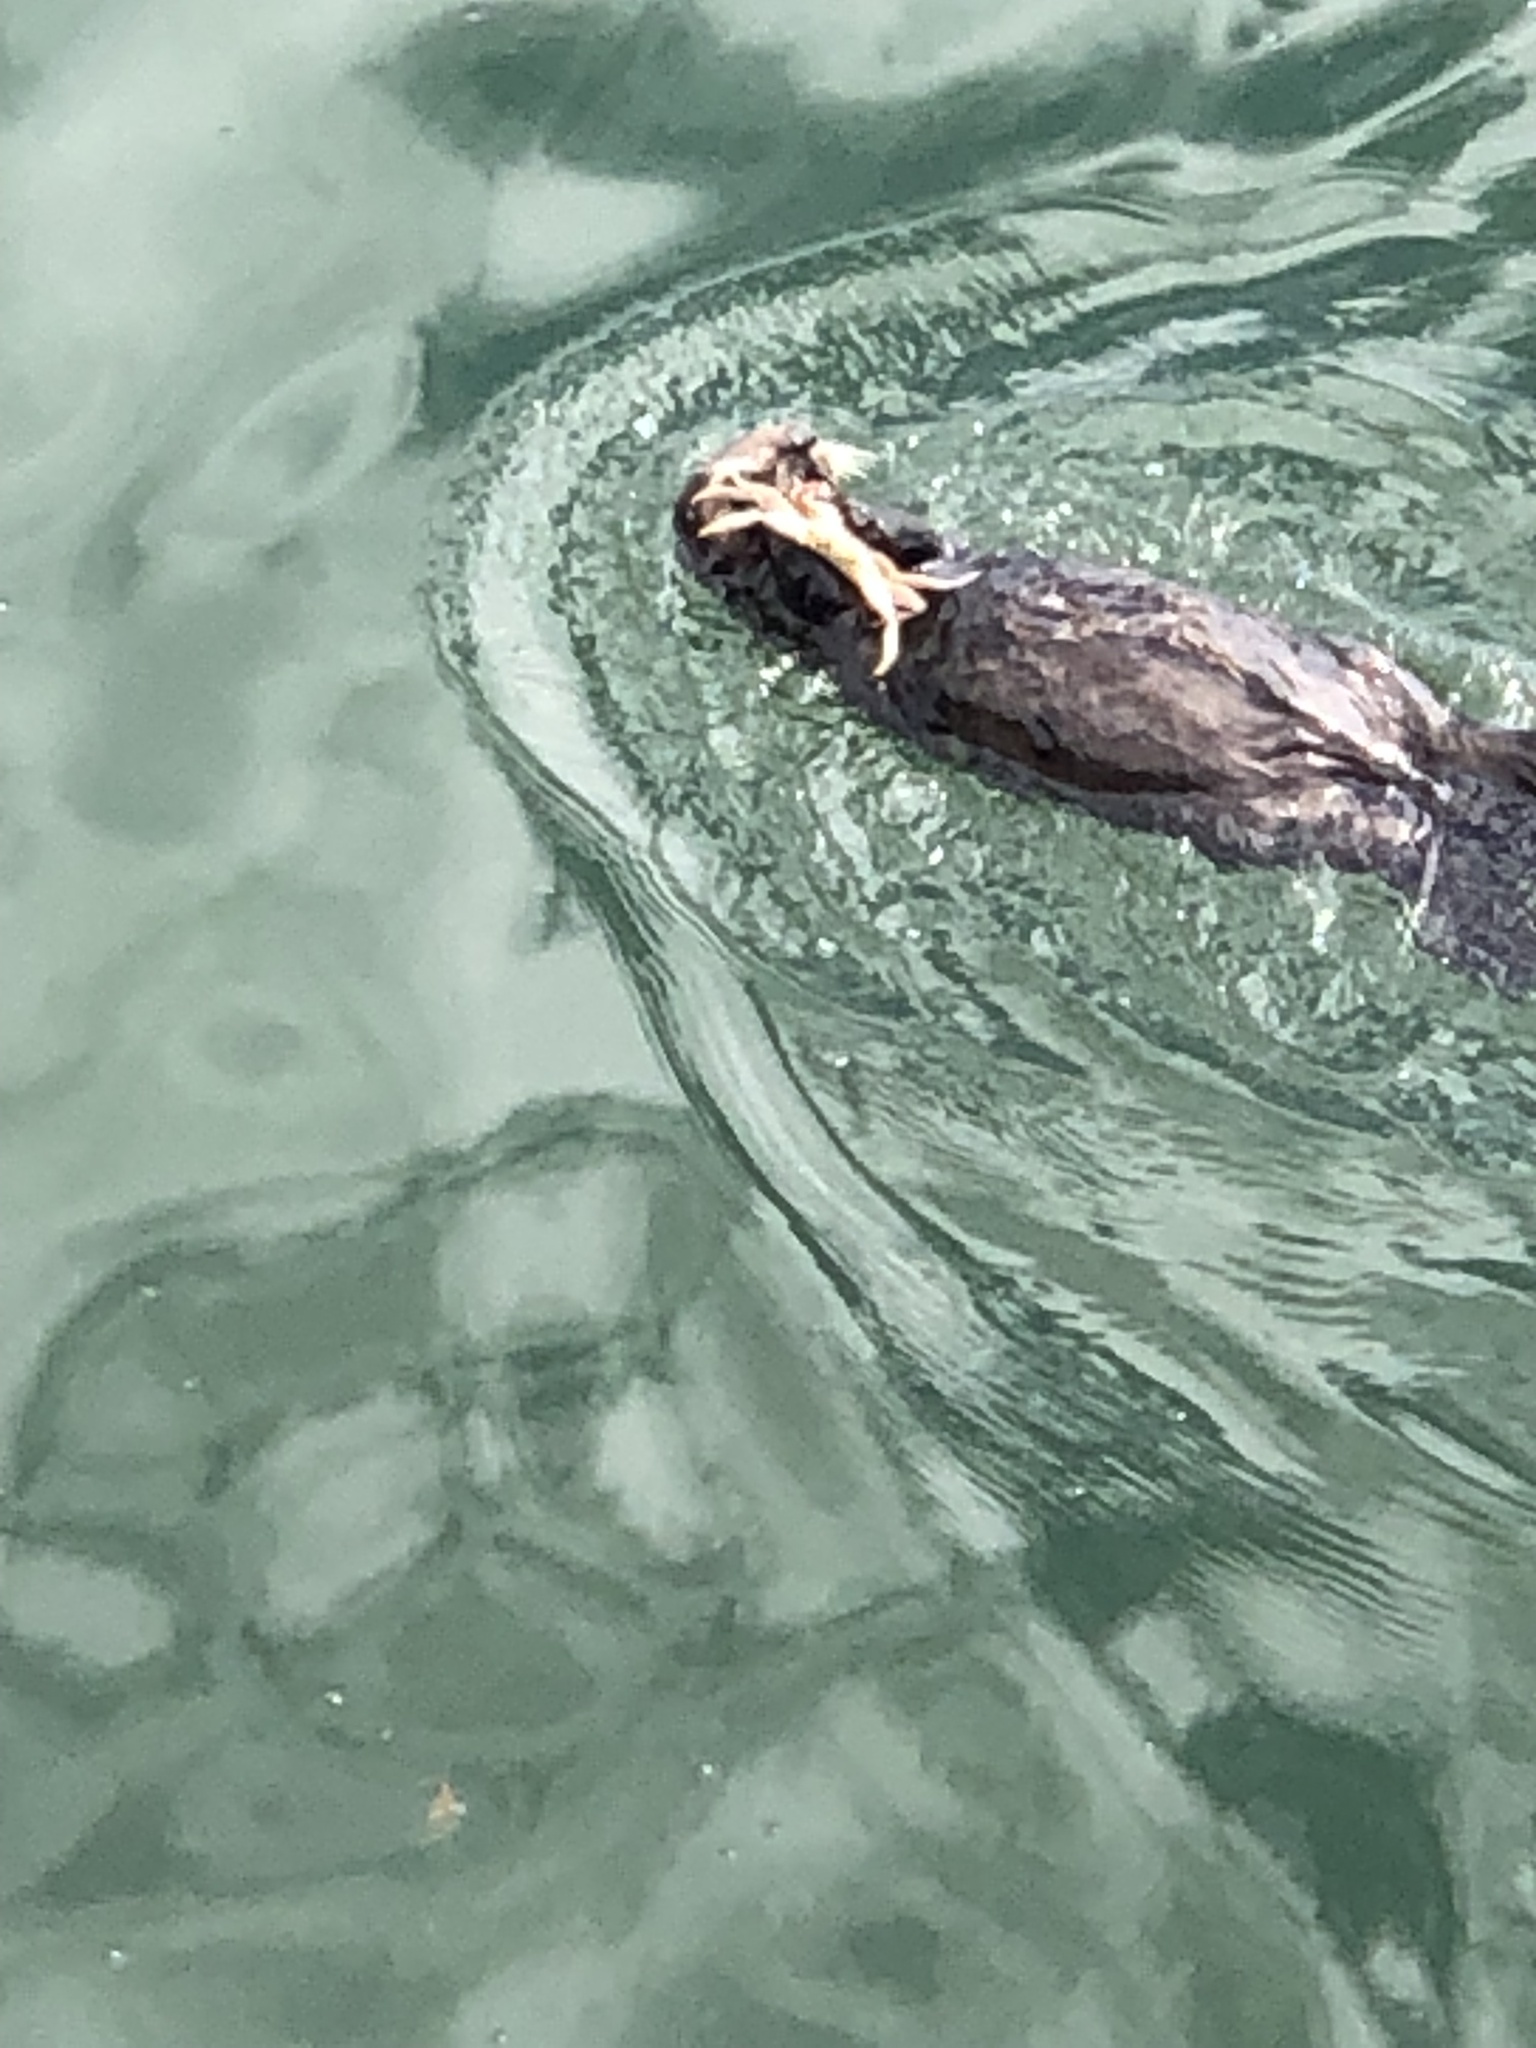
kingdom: Animalia
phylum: Chordata
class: Mammalia
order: Carnivora
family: Mustelidae
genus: Enhydra
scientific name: Enhydra lutris
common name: Sea otter
